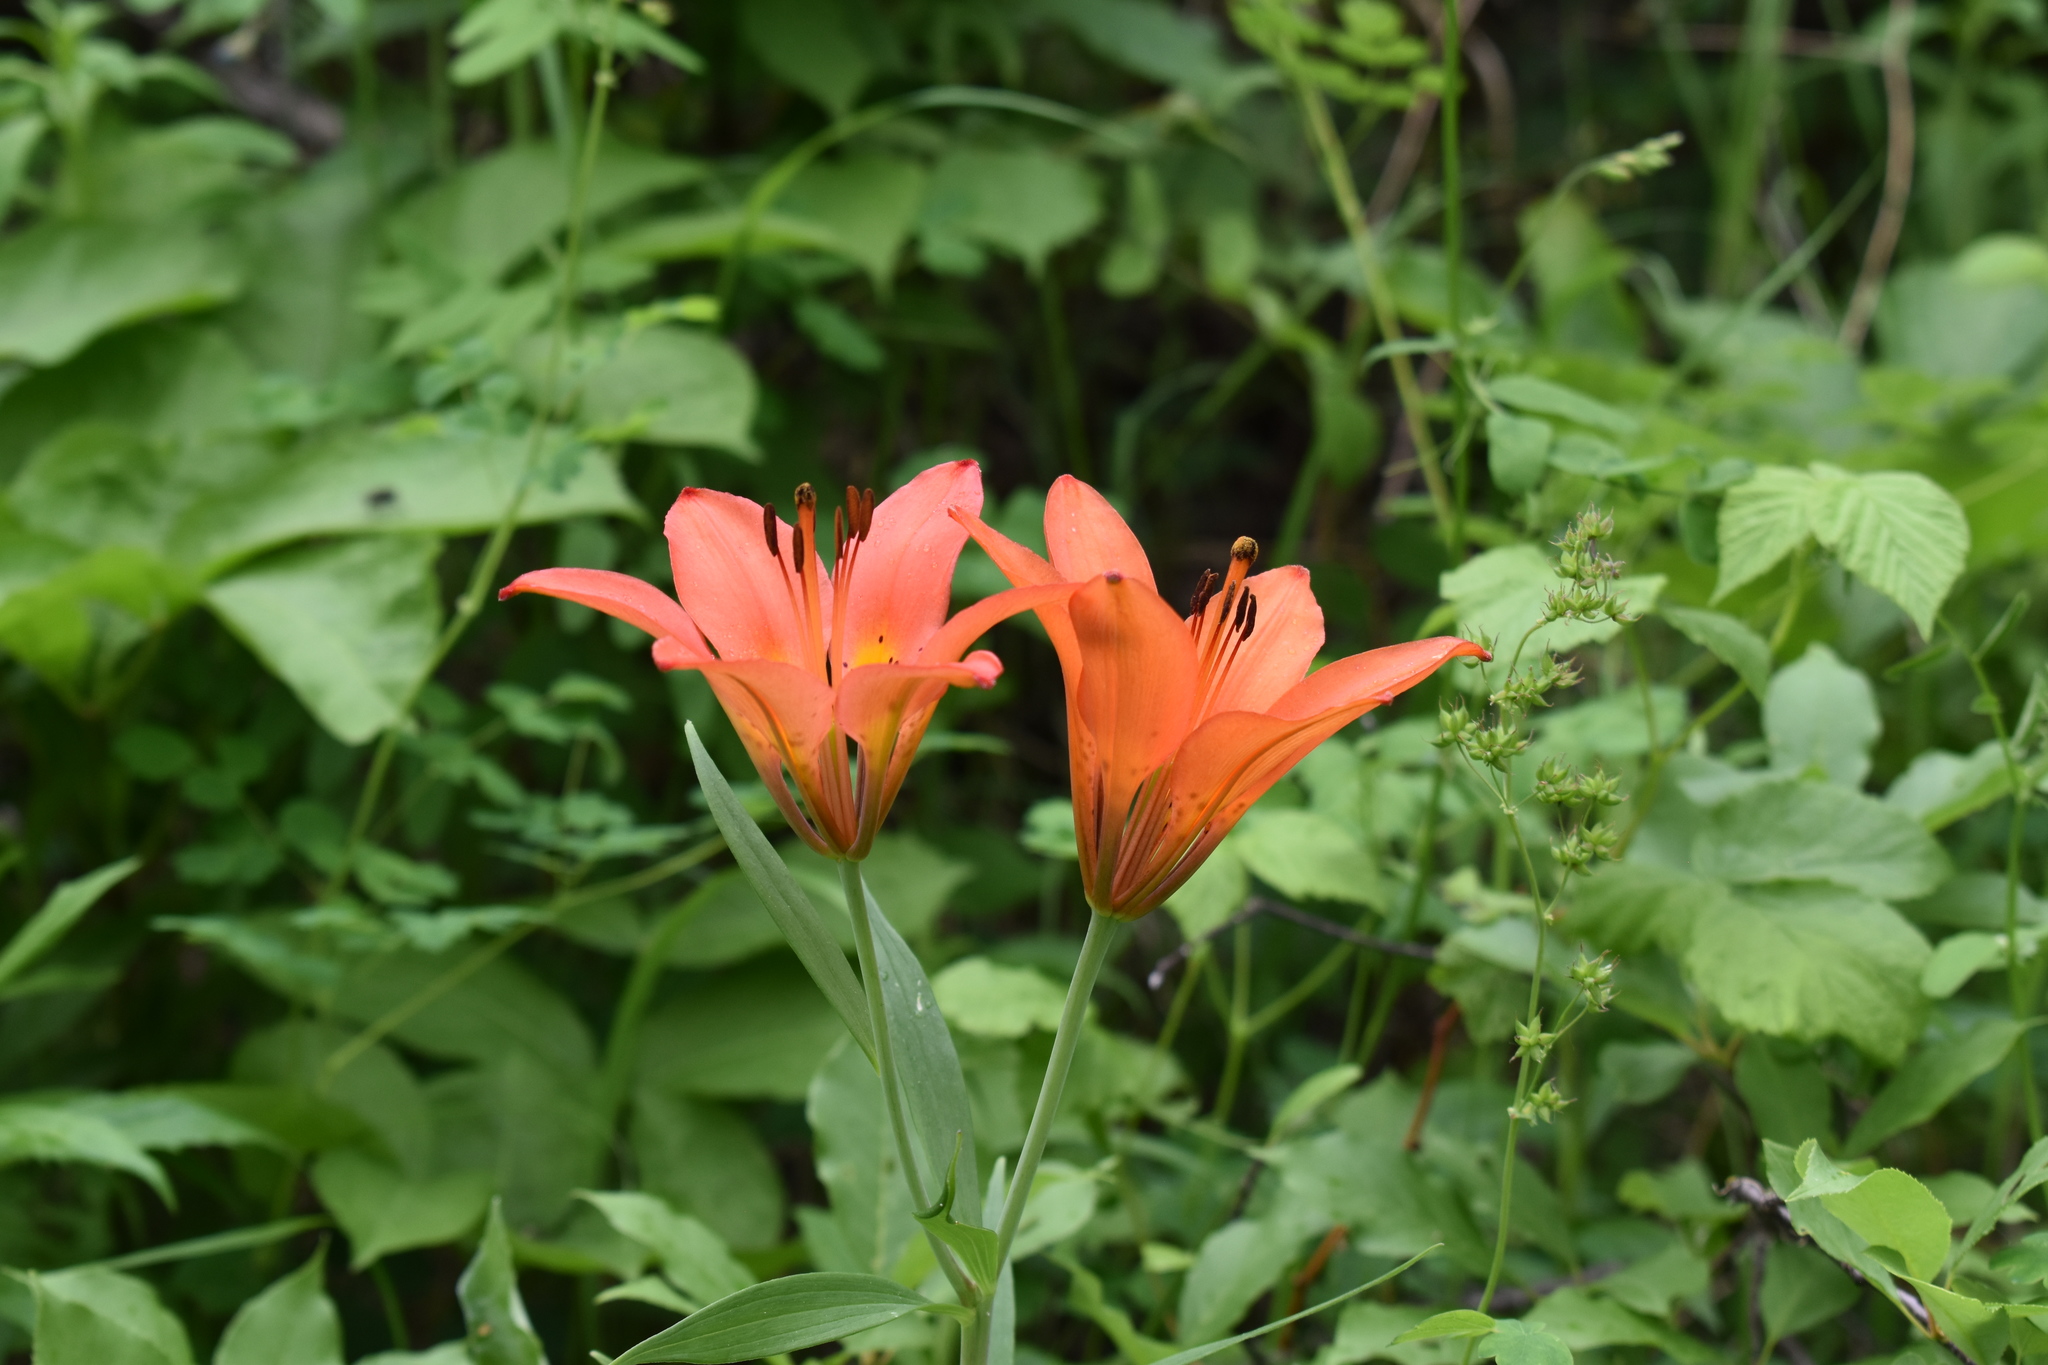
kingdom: Plantae
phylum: Tracheophyta
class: Liliopsida
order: Liliales
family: Liliaceae
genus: Lilium
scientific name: Lilium philadelphicum
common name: Red lily
